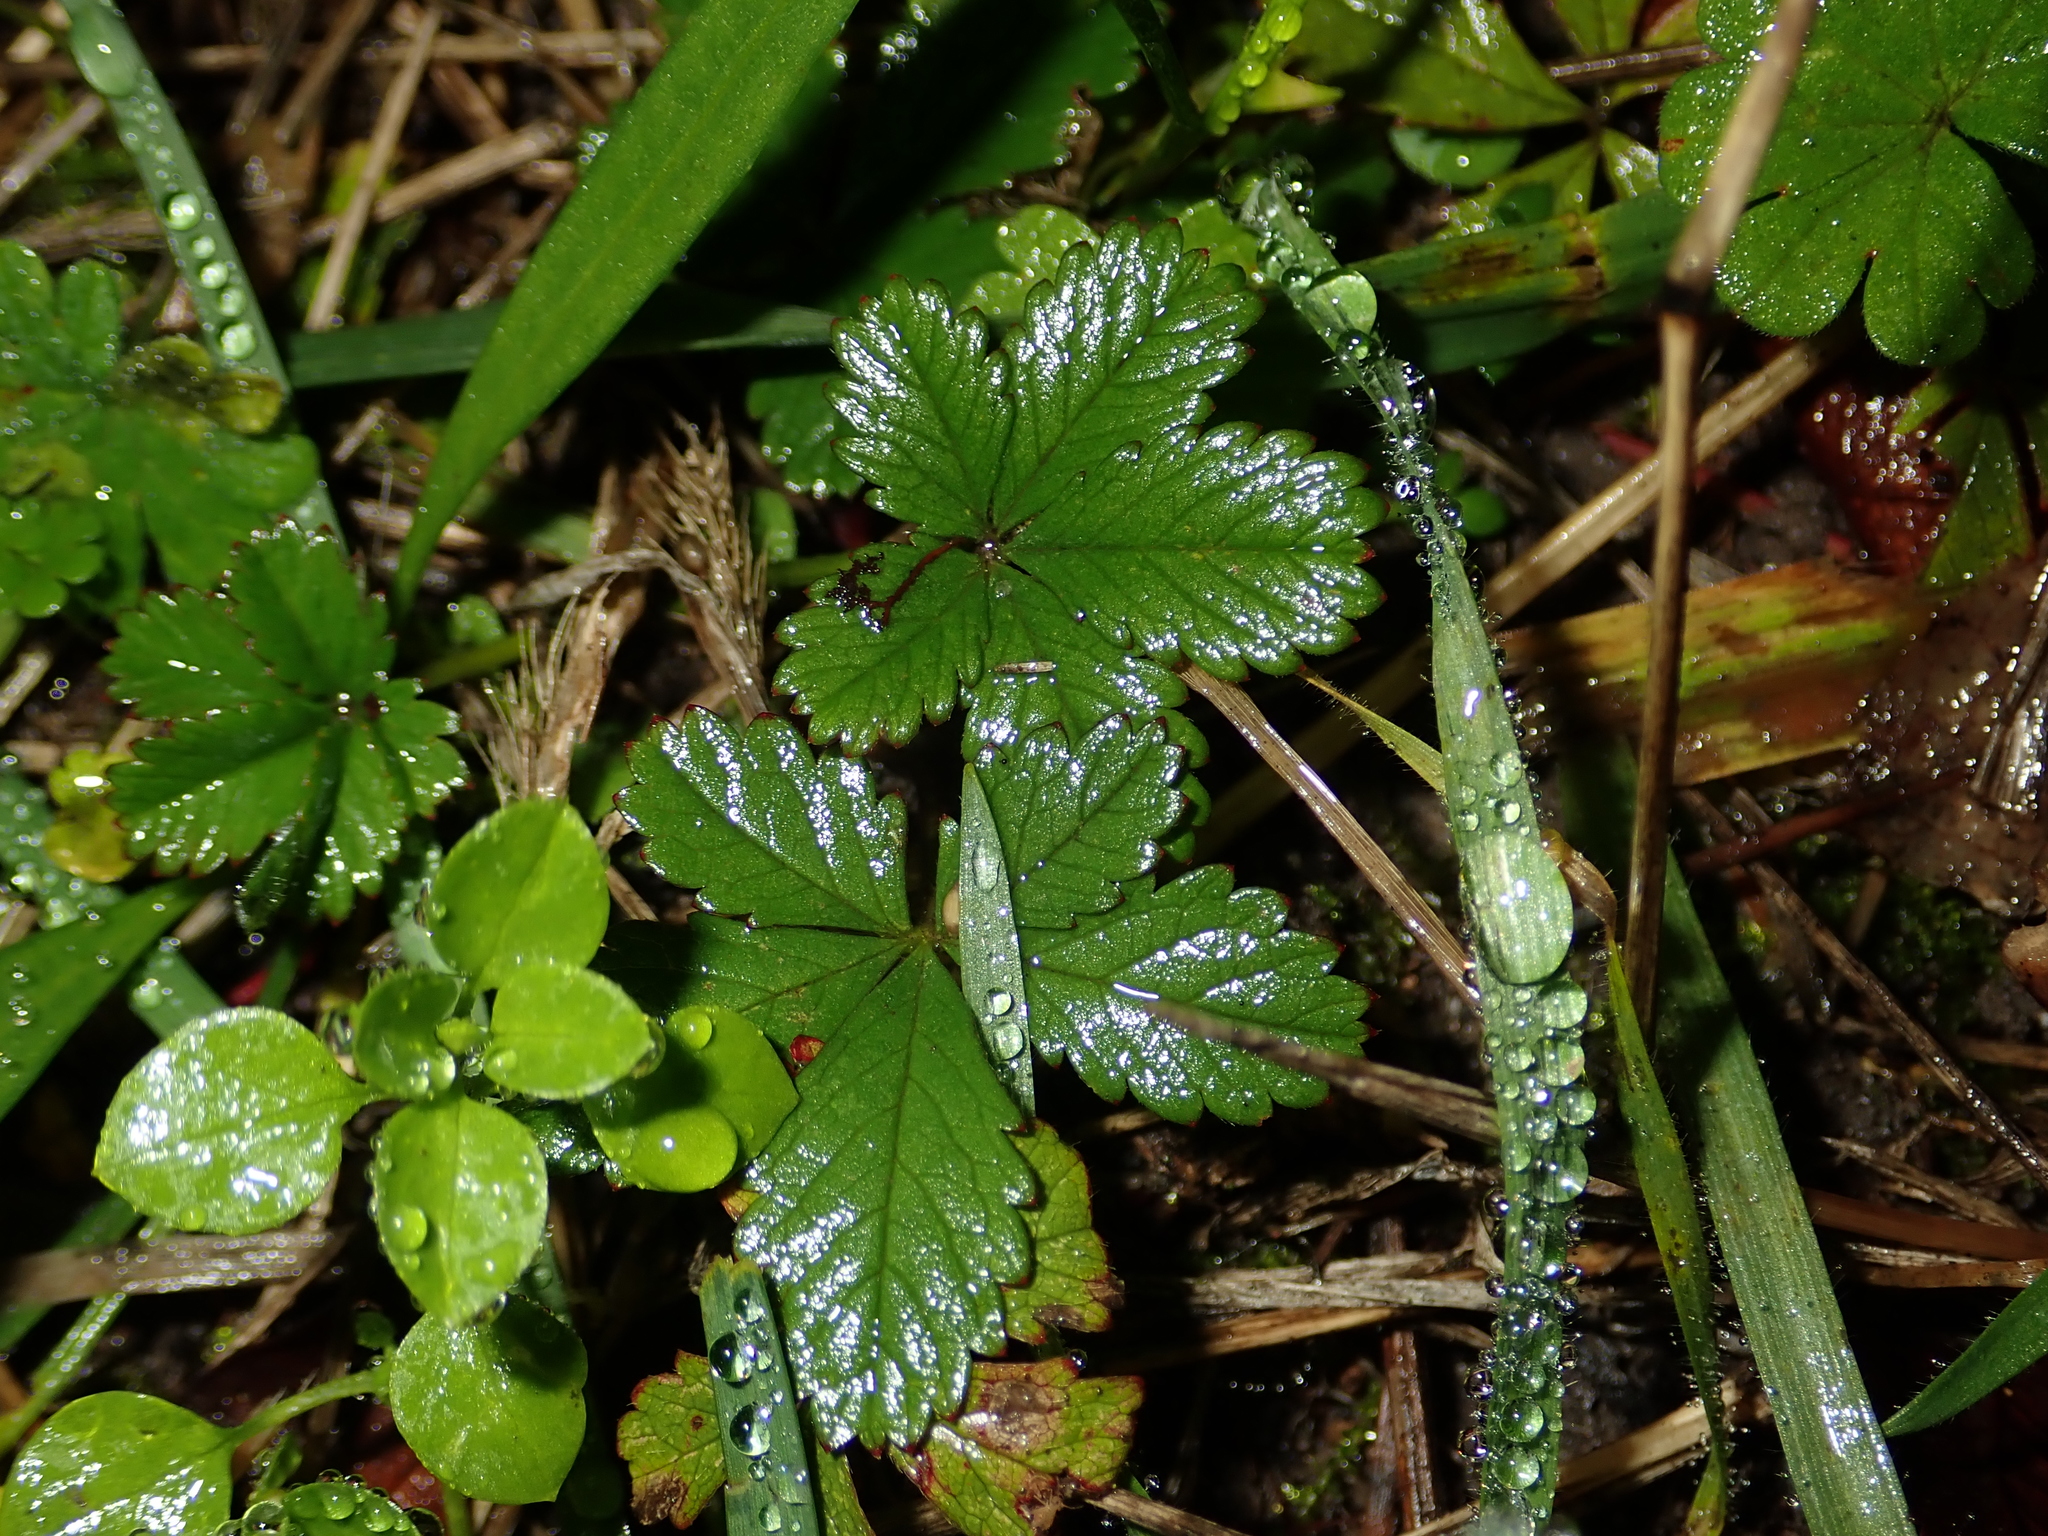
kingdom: Plantae
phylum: Tracheophyta
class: Magnoliopsida
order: Rosales
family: Rosaceae
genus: Potentilla
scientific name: Potentilla reptans
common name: Creeping cinquefoil
